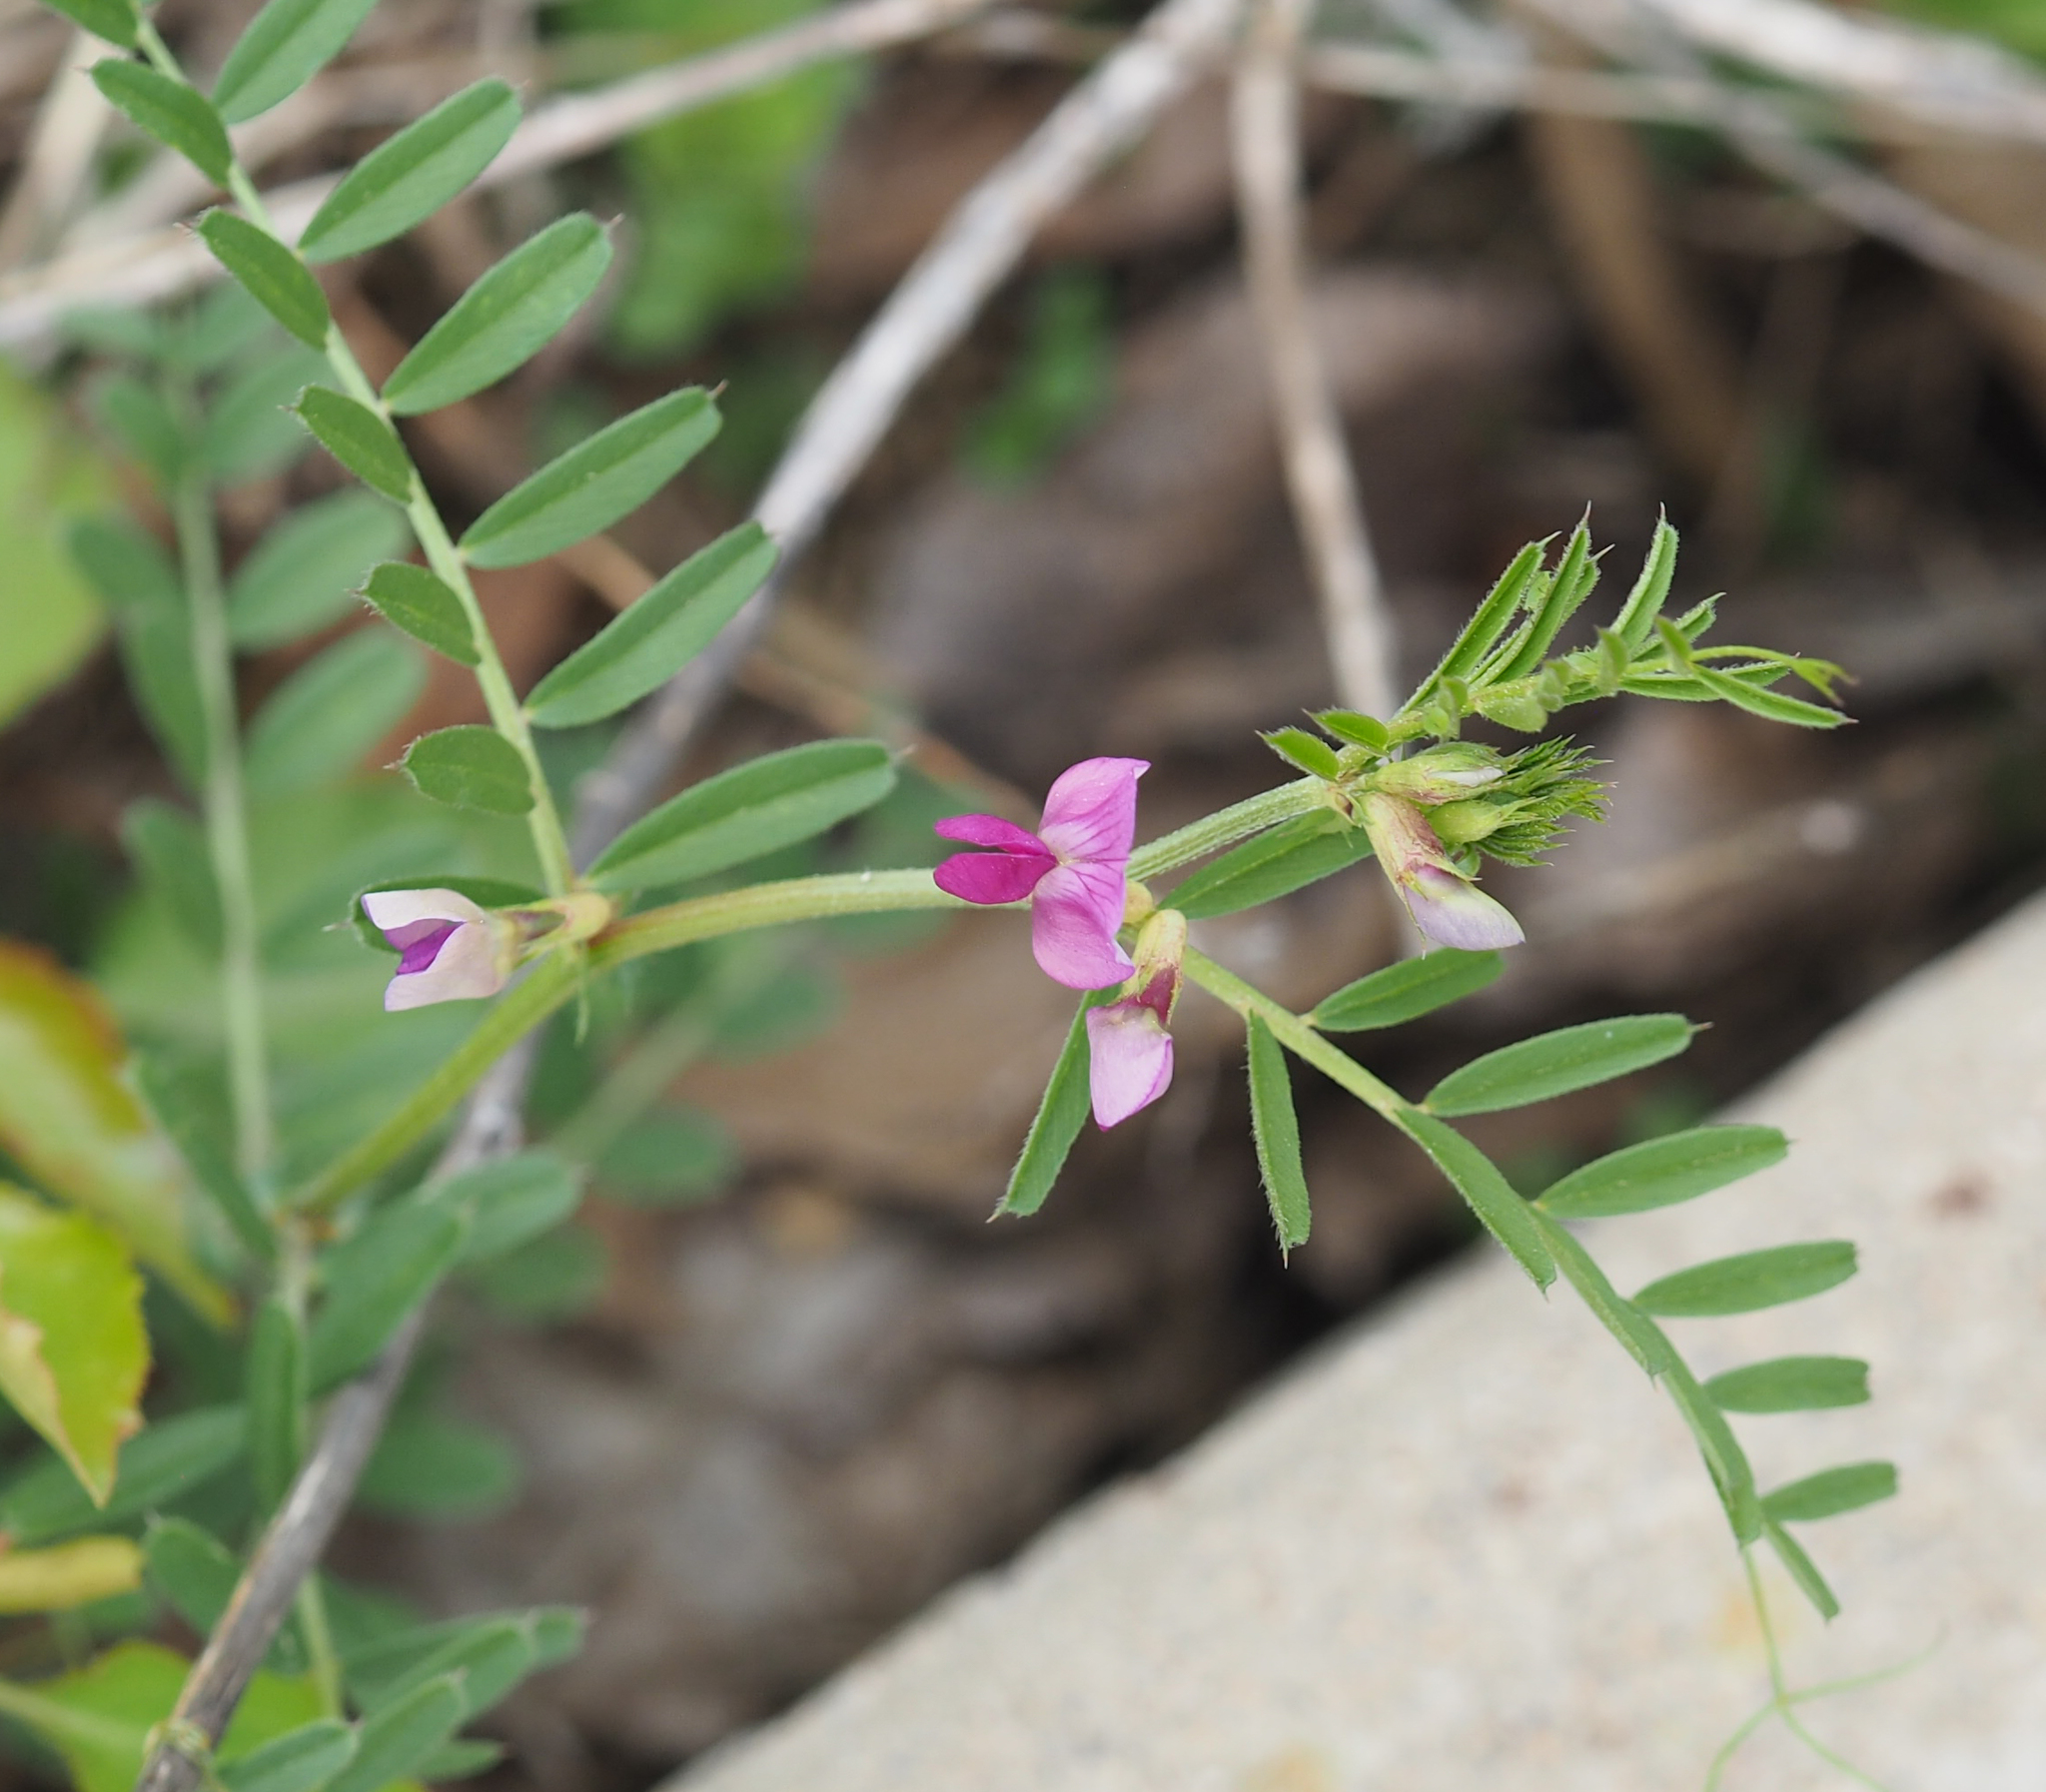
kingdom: Plantae
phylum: Tracheophyta
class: Magnoliopsida
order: Fabales
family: Fabaceae
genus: Vicia
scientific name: Vicia sativa
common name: Garden vetch
